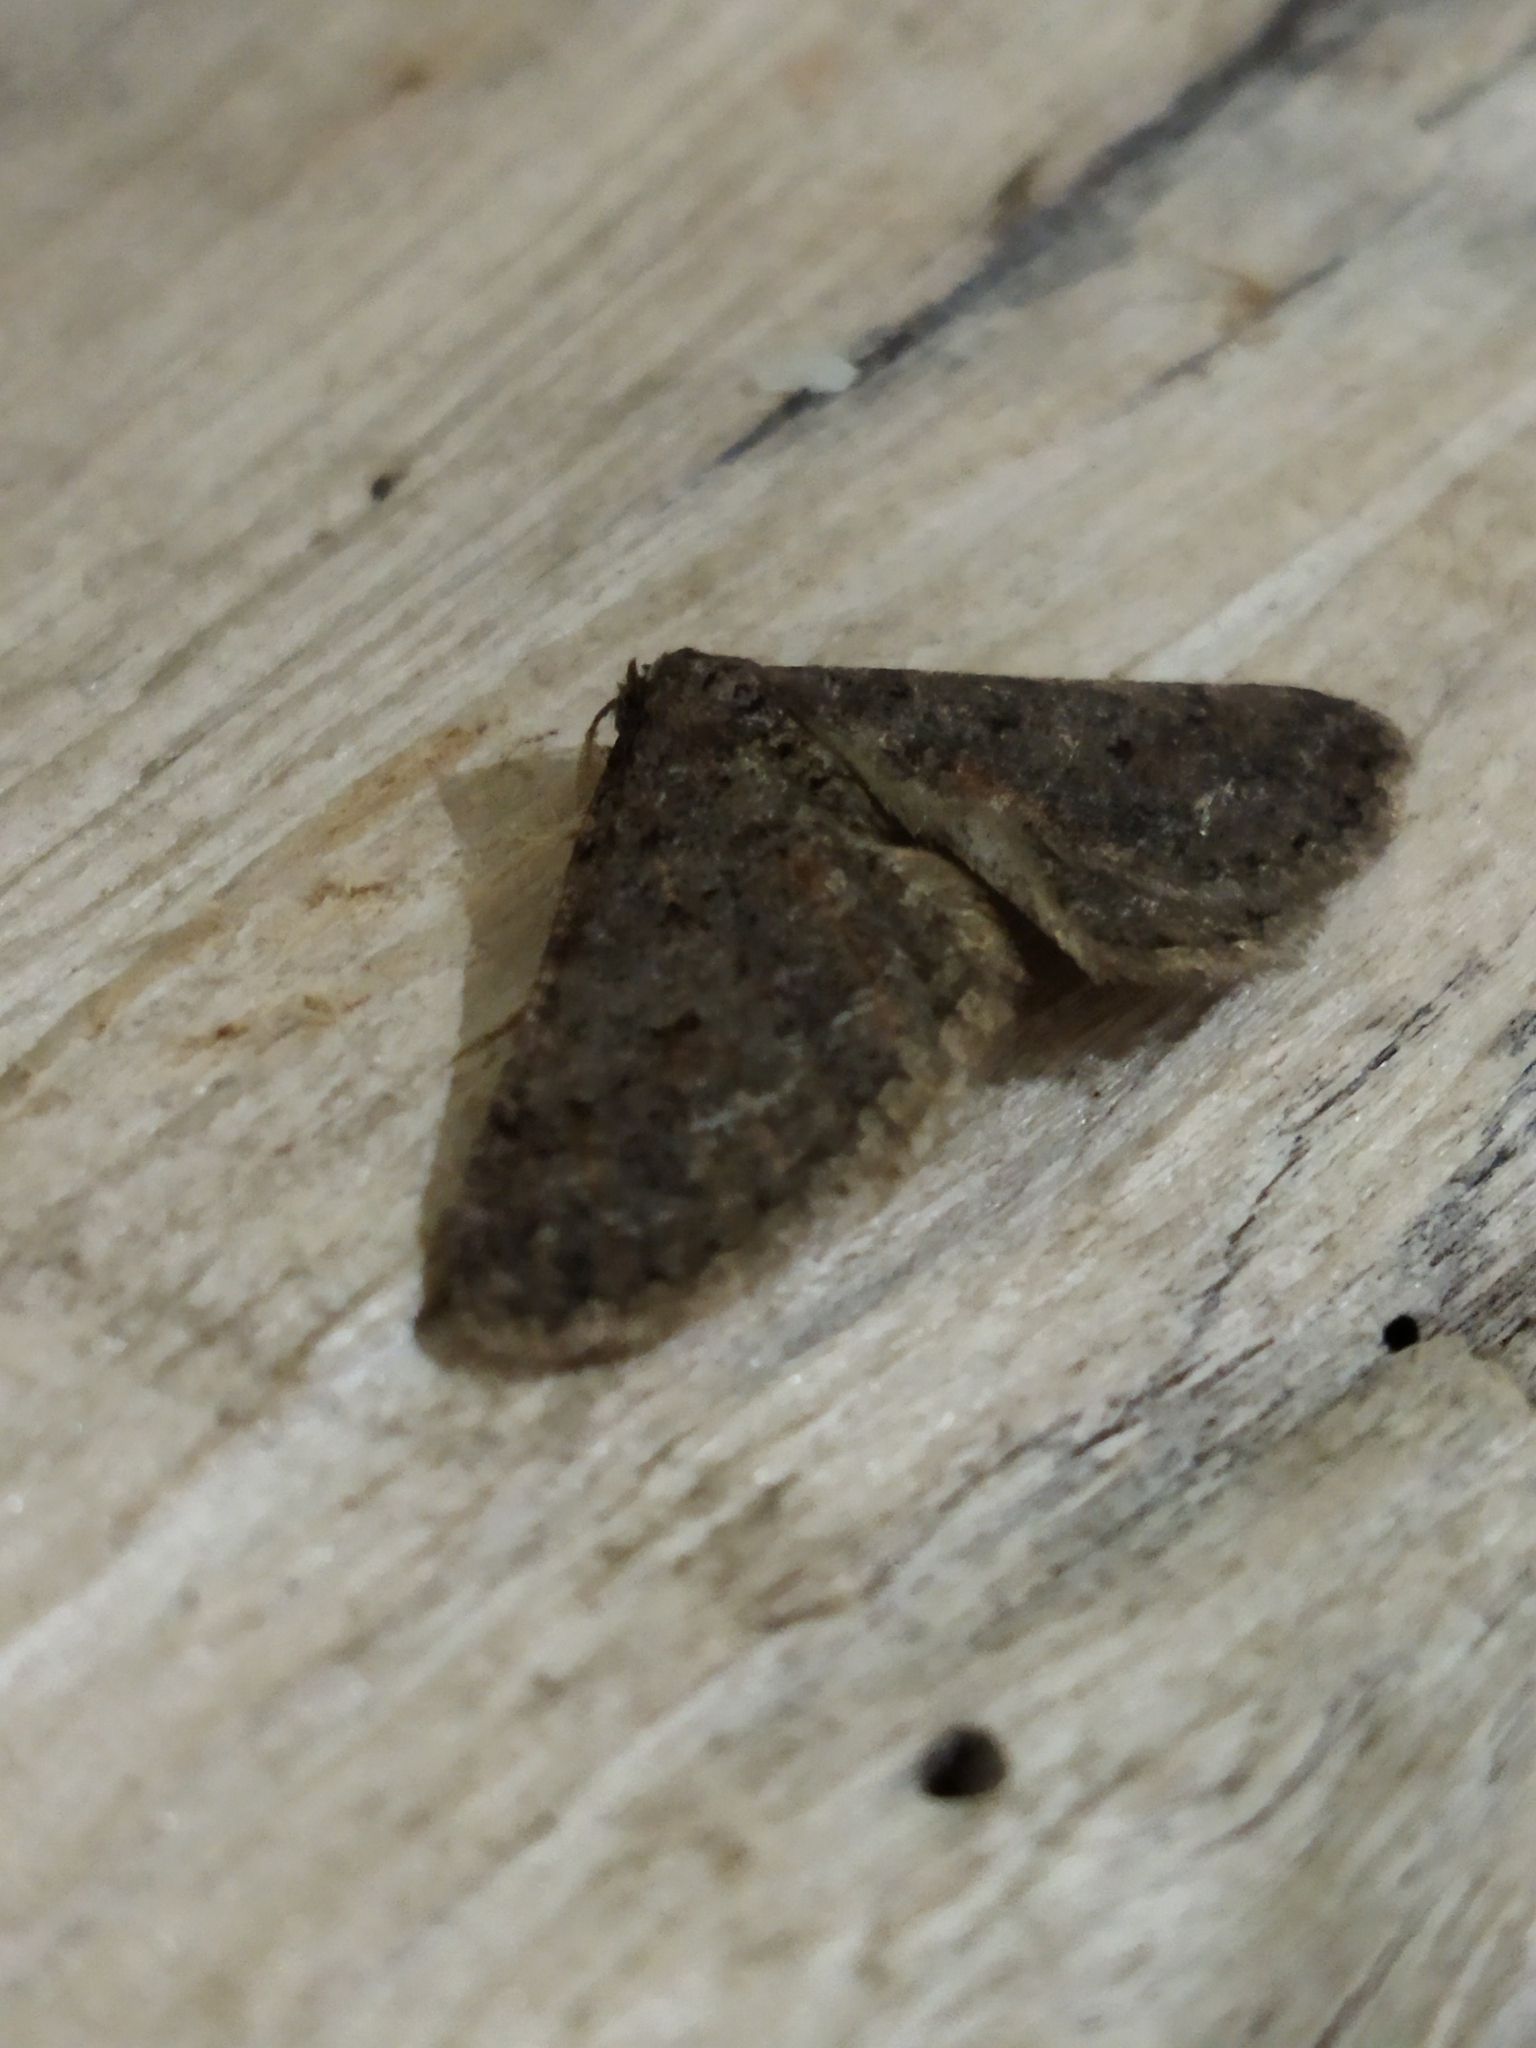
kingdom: Animalia
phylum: Arthropoda
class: Insecta
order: Lepidoptera
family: Geometridae
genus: Agriopis
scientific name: Agriopis bajaria
